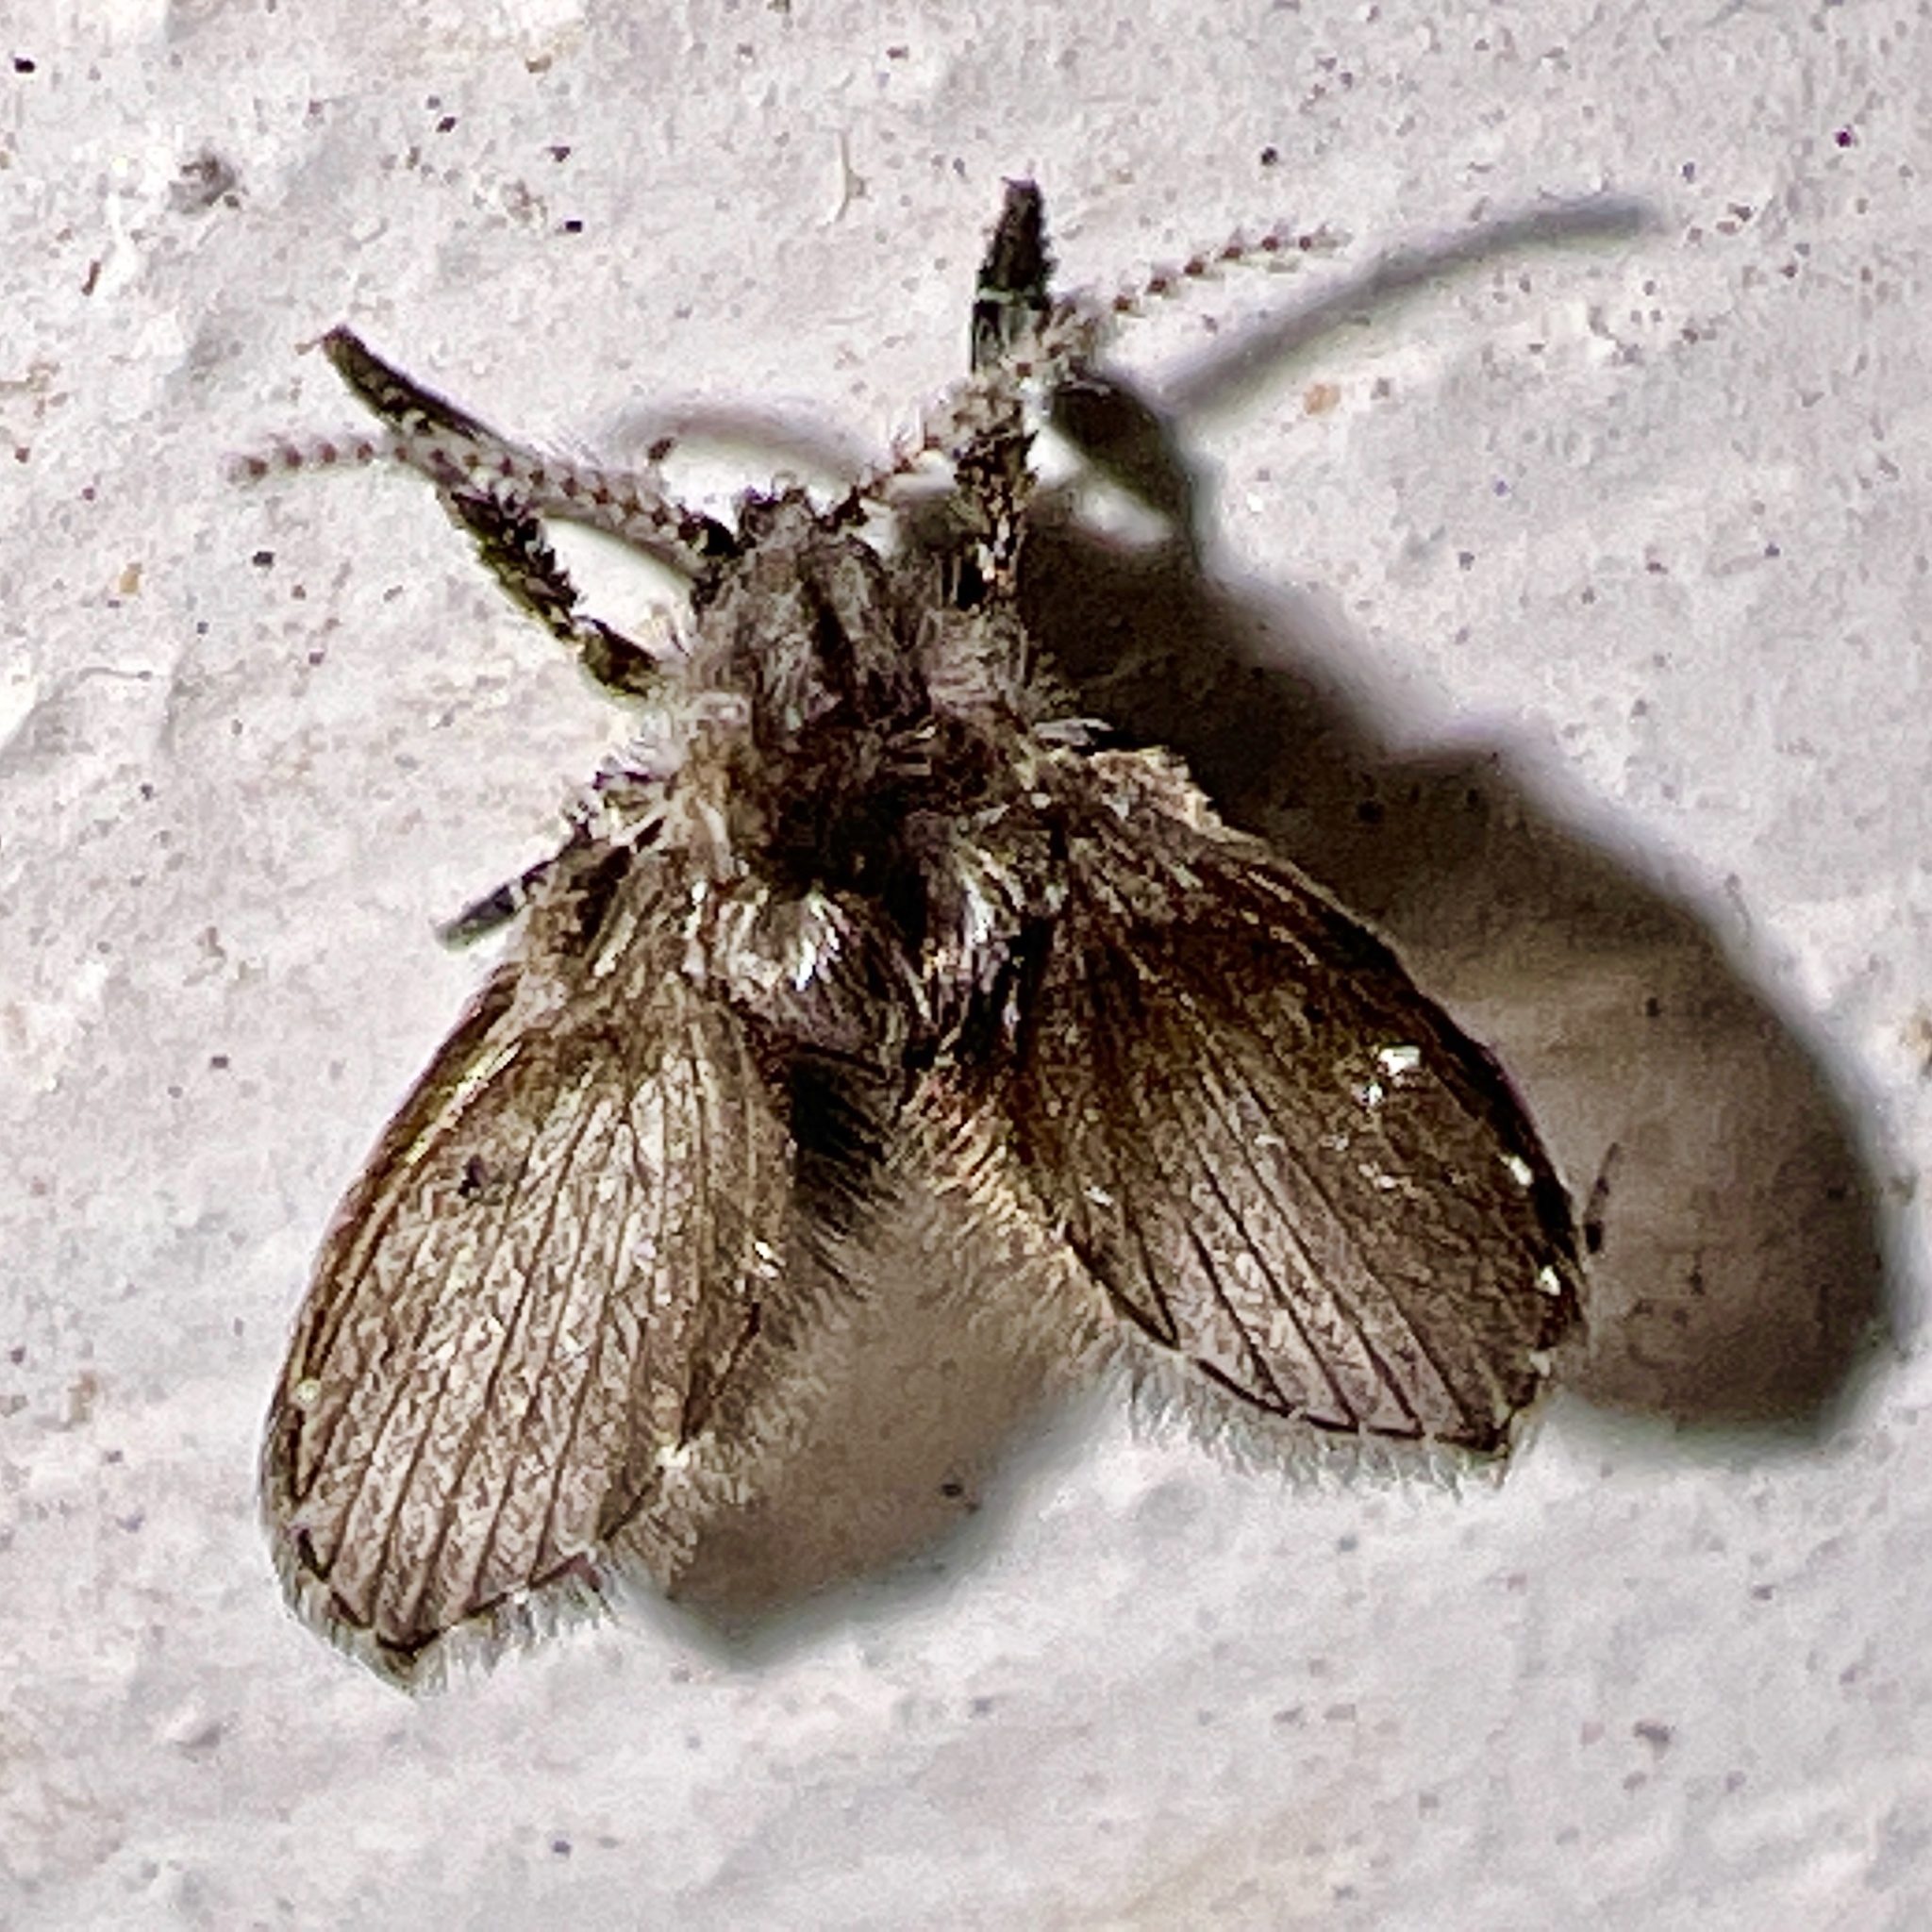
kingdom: Animalia
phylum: Arthropoda
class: Insecta
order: Diptera
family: Psychodidae
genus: Clogmia
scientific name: Clogmia albipunctatus
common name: White-spotted moth fly
